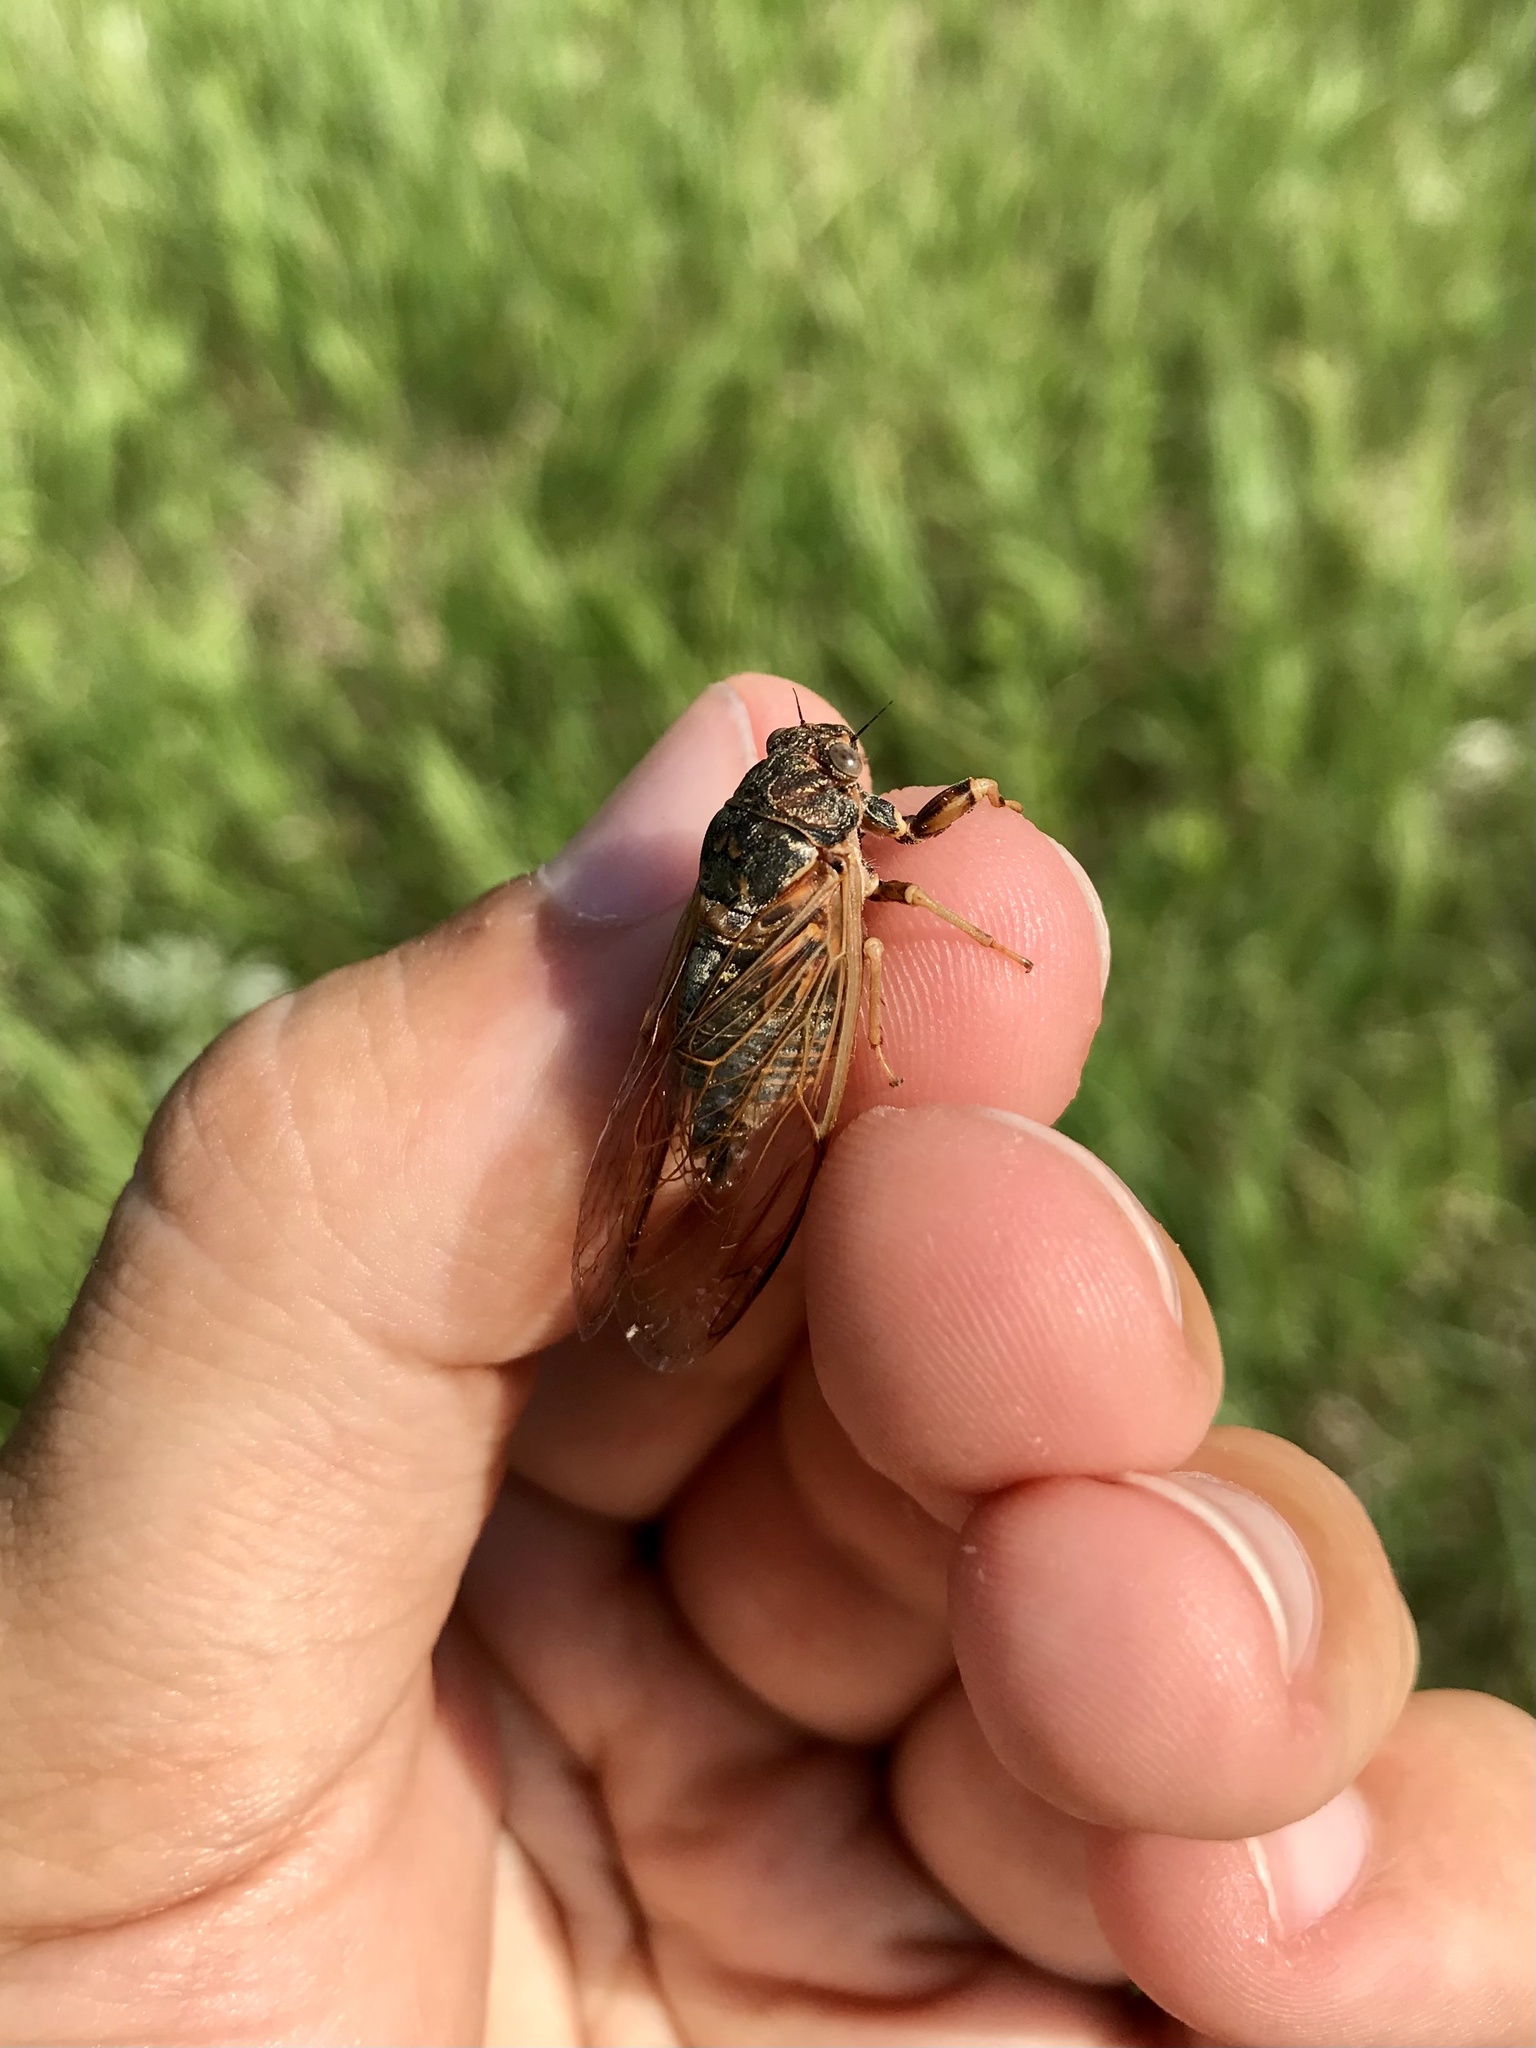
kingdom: Animalia
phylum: Arthropoda
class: Insecta
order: Hemiptera
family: Cicadidae
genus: Okanagana
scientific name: Okanagana balli
